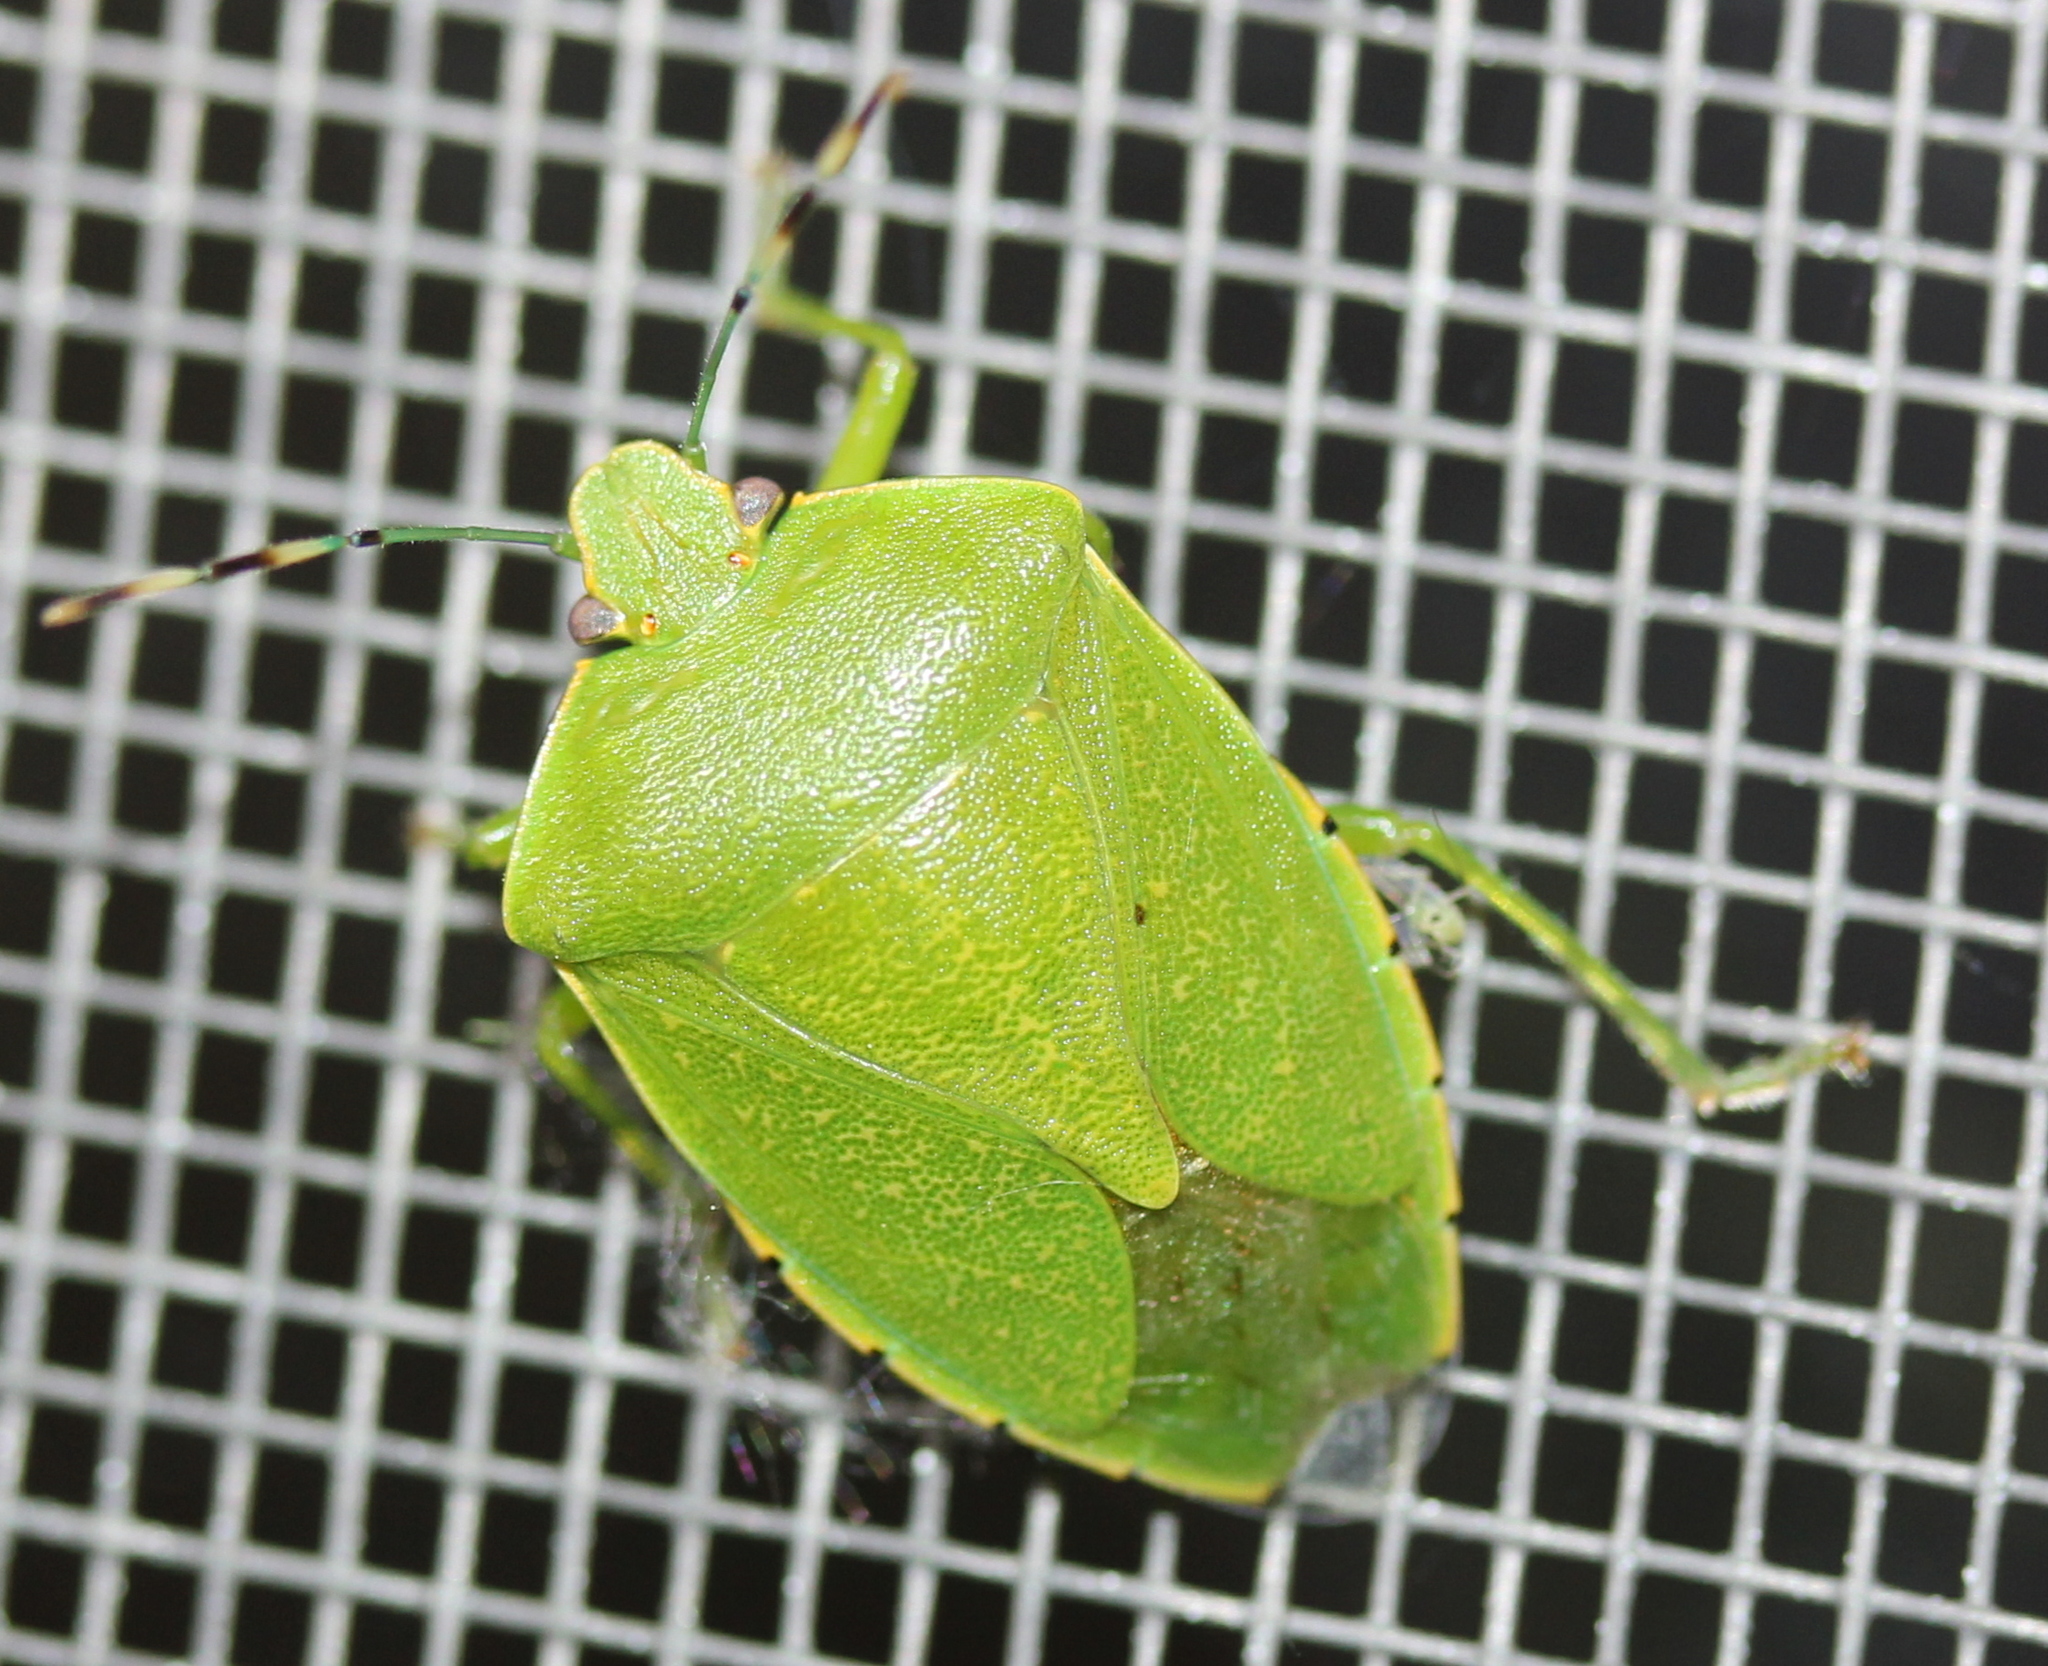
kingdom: Animalia
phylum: Arthropoda
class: Insecta
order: Hemiptera
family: Pentatomidae
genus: Chinavia
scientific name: Chinavia hilaris
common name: Green stink bug
